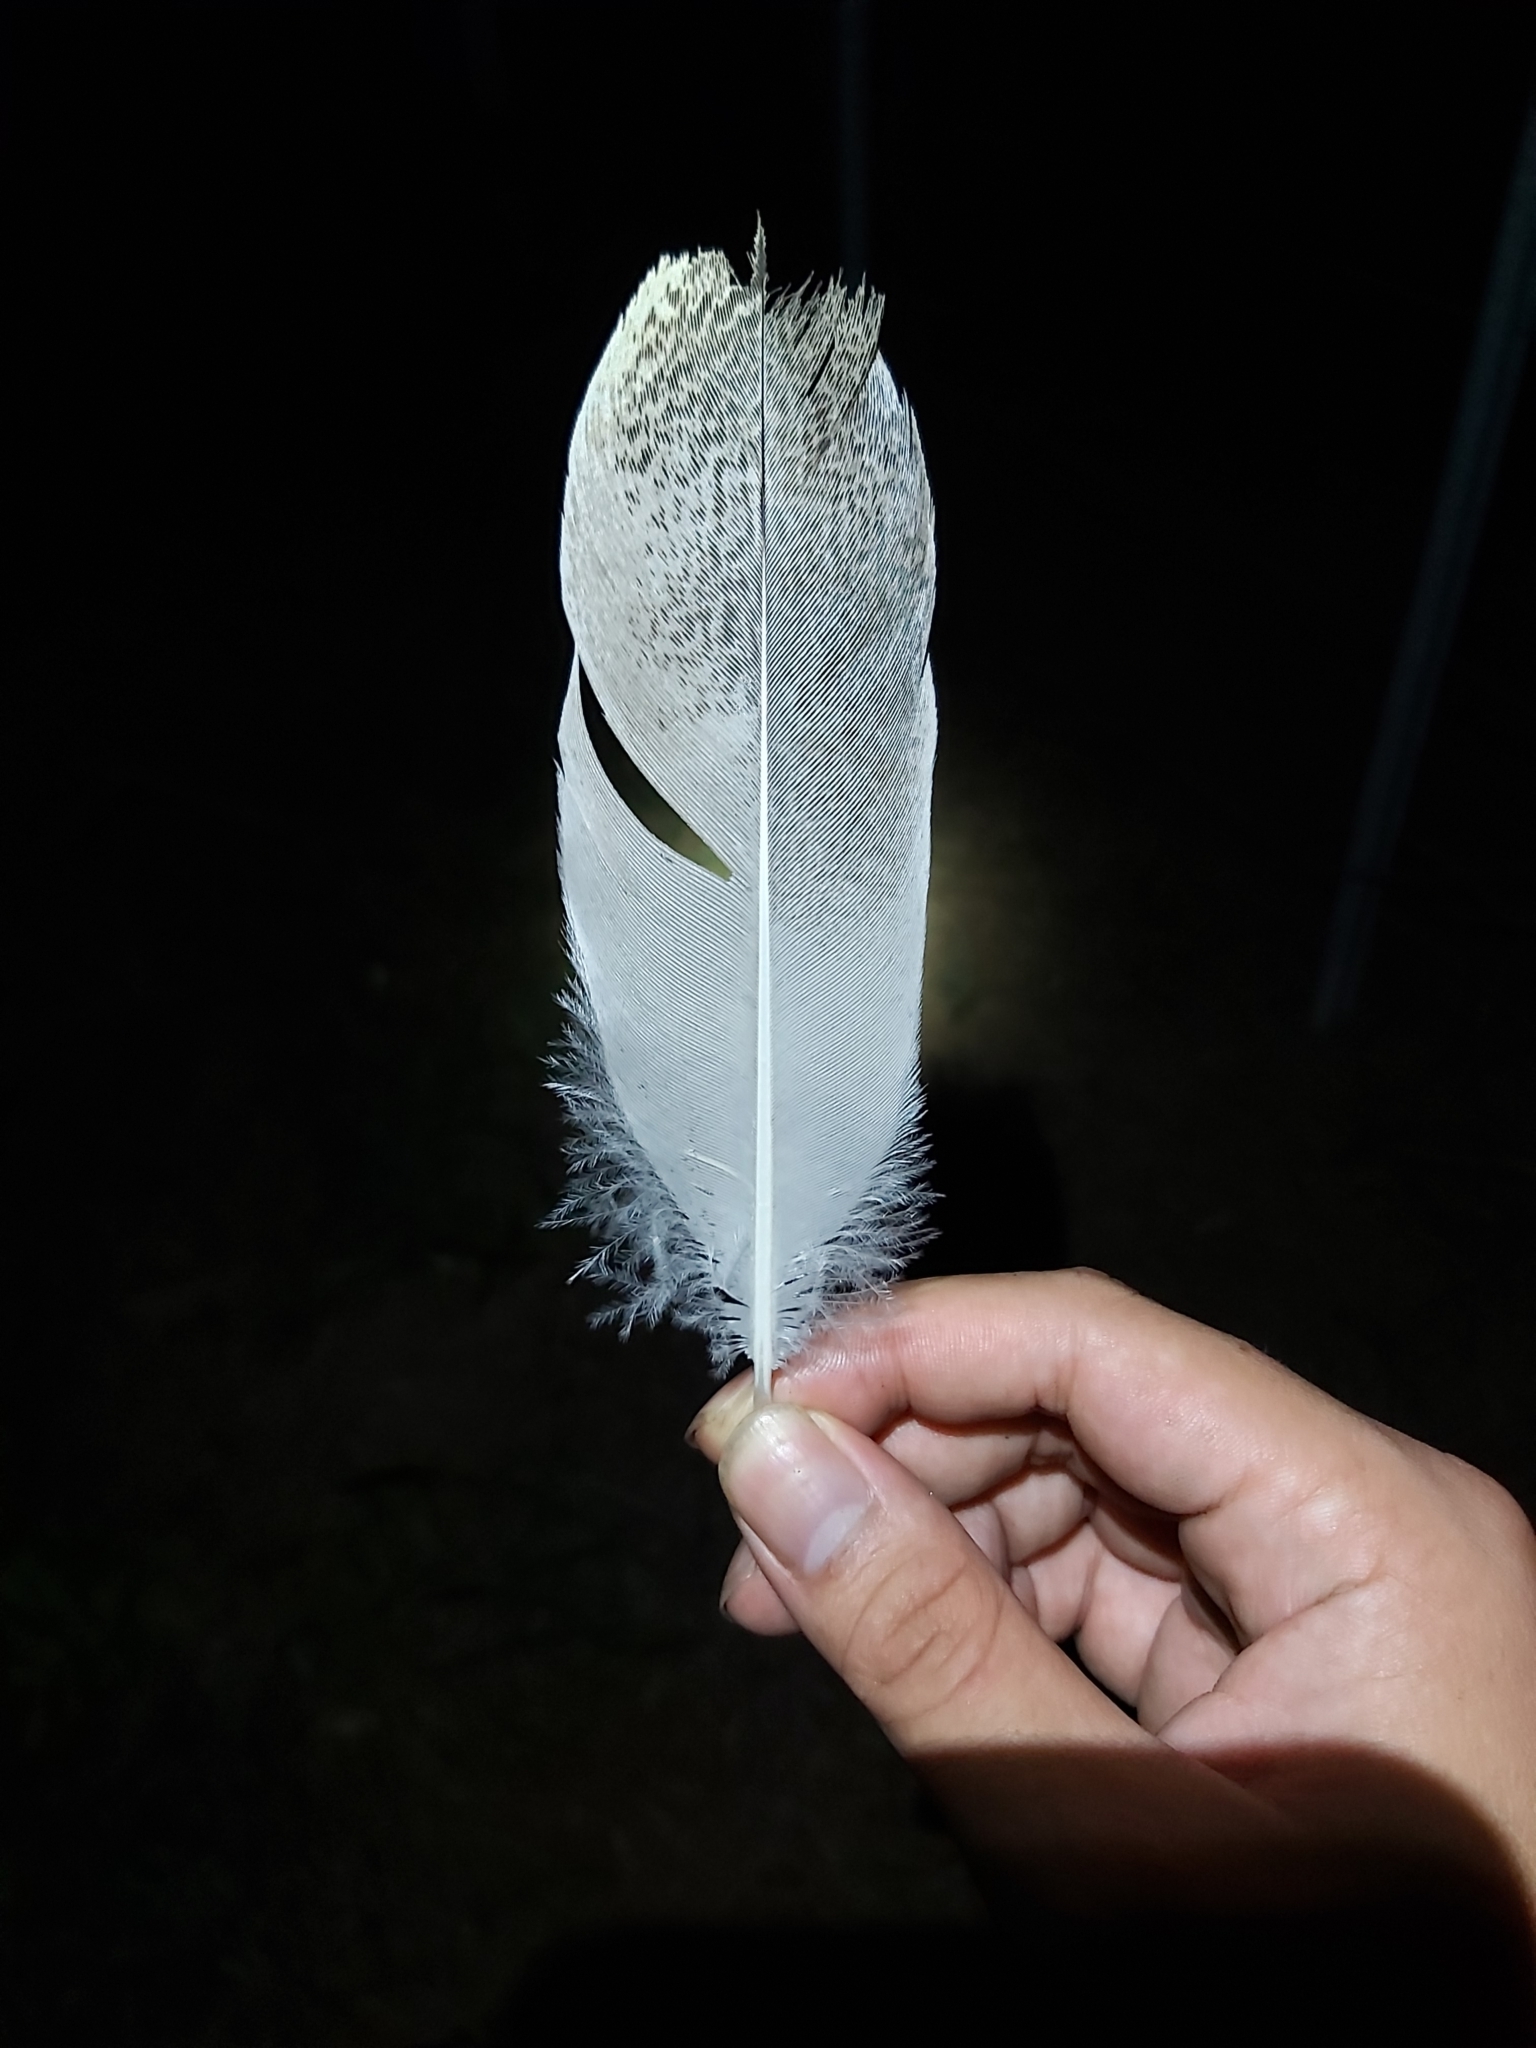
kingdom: Animalia
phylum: Chordata
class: Aves
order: Pelecaniformes
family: Threskiornithidae
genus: Threskiornis
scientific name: Threskiornis molucca
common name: Australian white ibis
